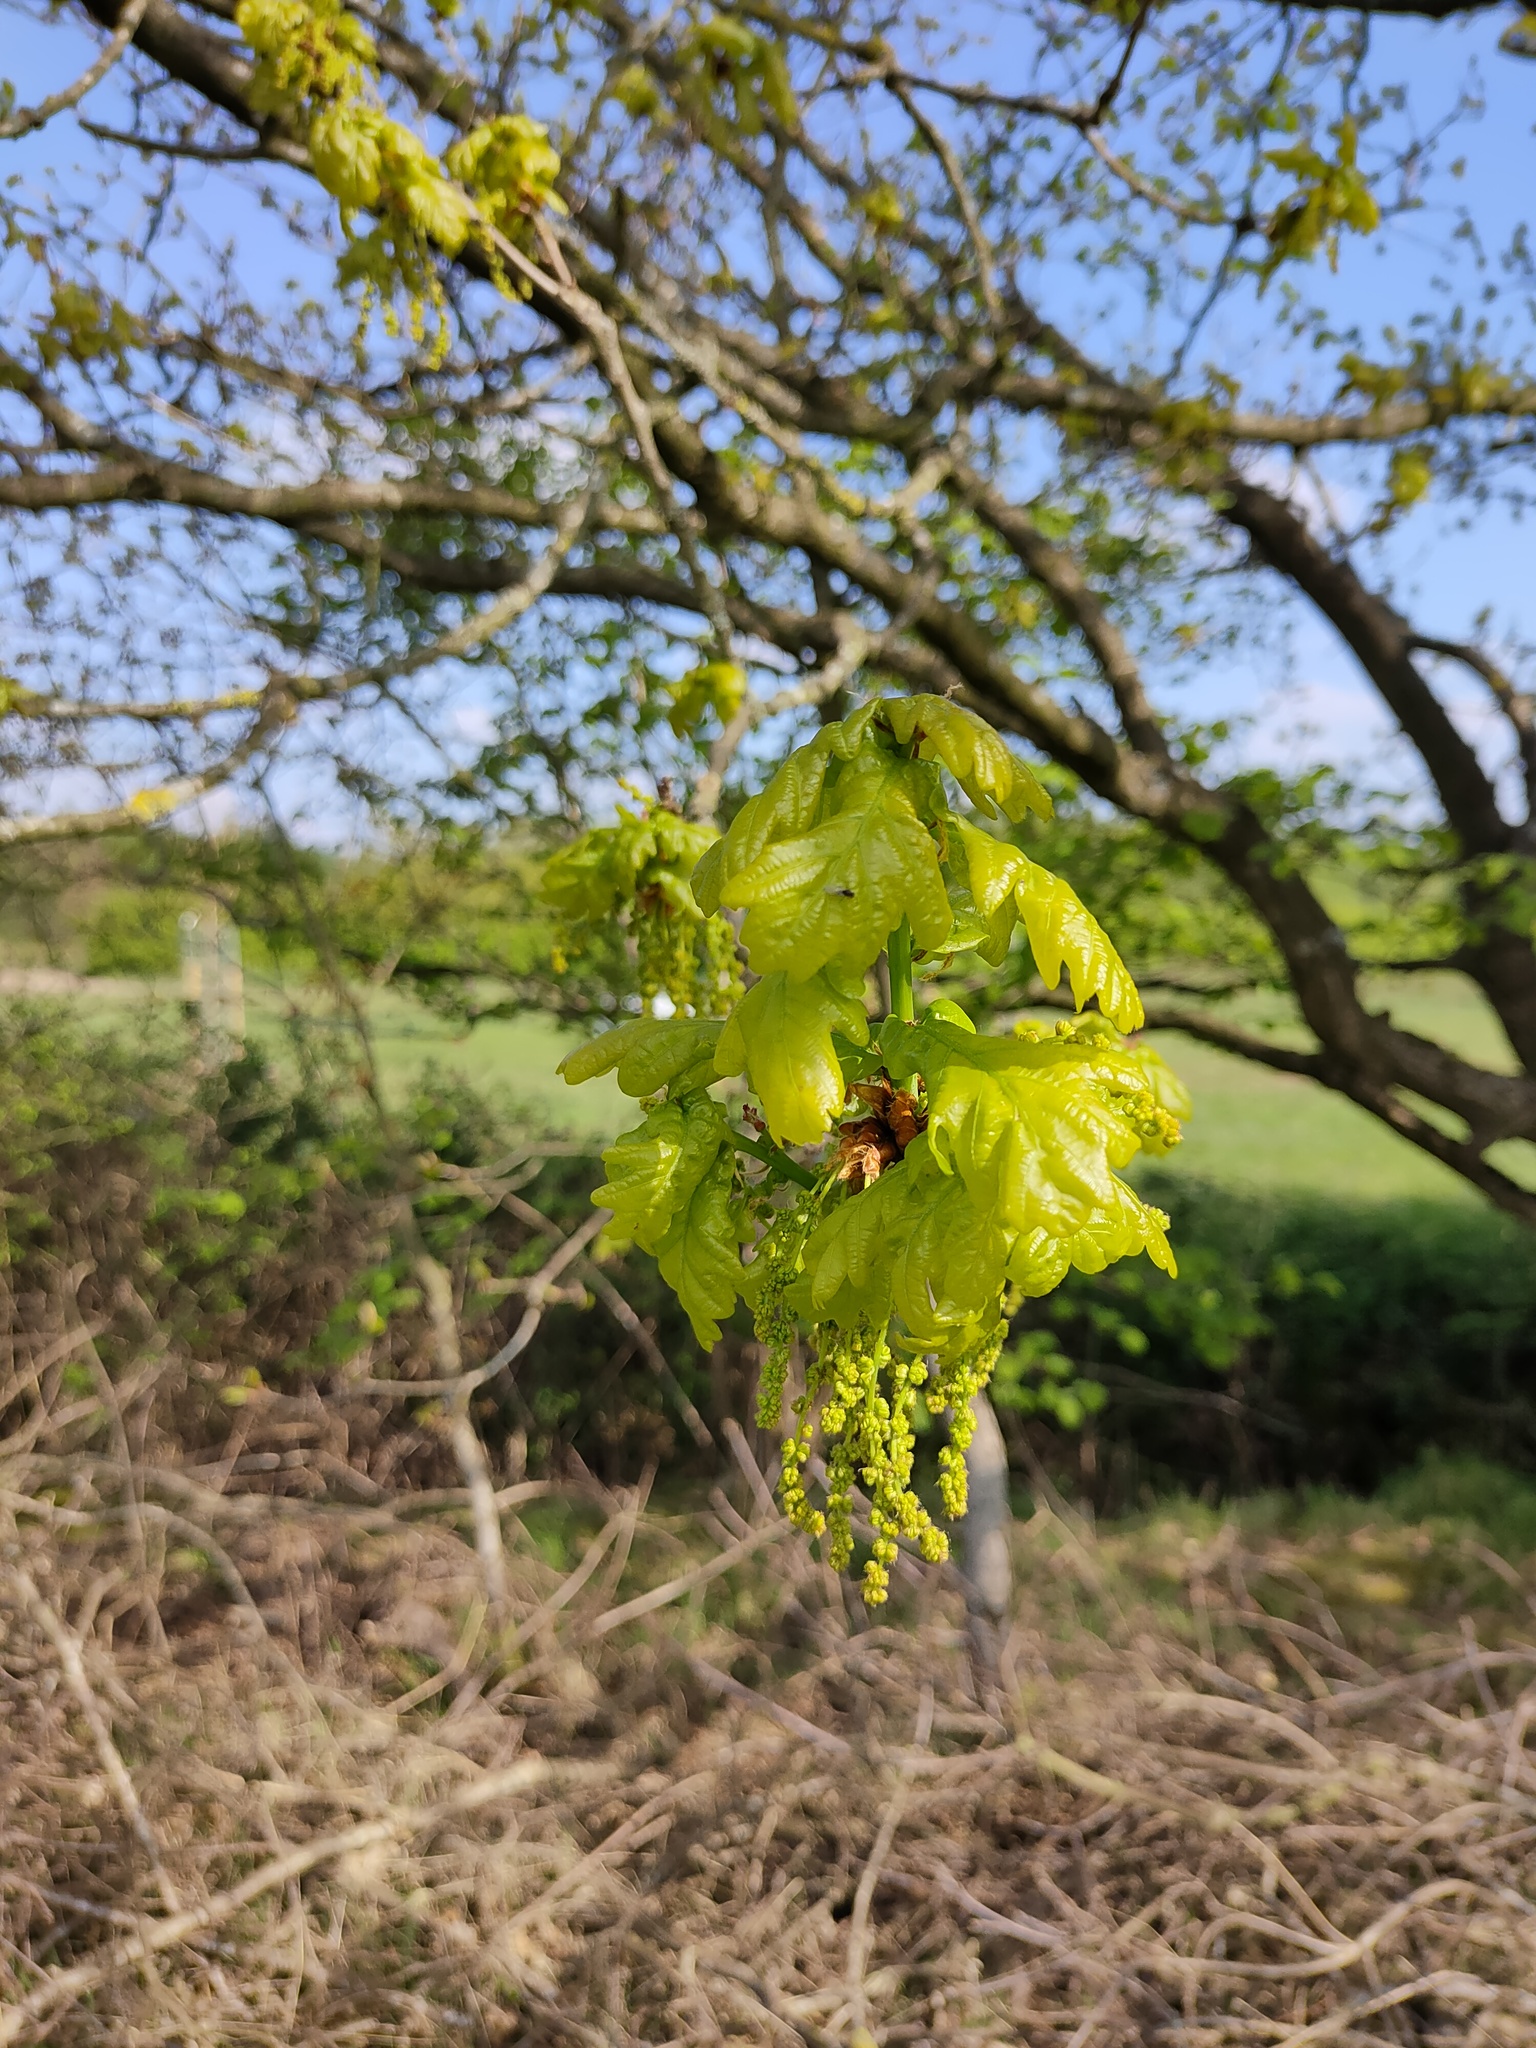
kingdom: Plantae
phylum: Tracheophyta
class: Magnoliopsida
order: Fagales
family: Fagaceae
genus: Quercus
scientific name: Quercus robur
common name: Pedunculate oak
